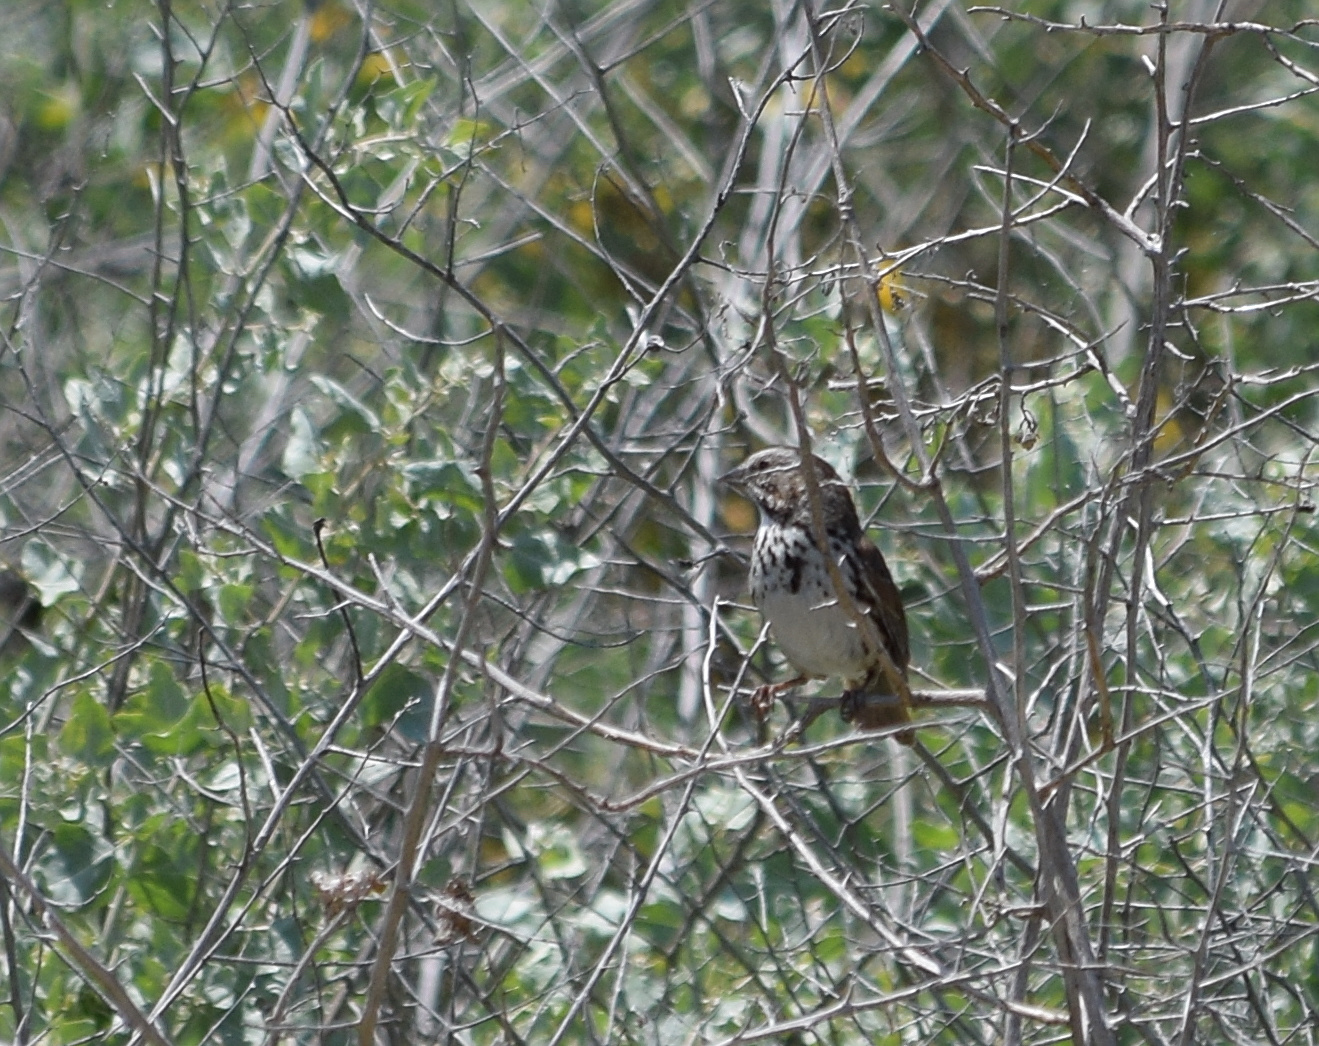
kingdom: Animalia
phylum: Chordata
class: Aves
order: Passeriformes
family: Passerellidae
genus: Melospiza
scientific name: Melospiza melodia
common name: Song sparrow
